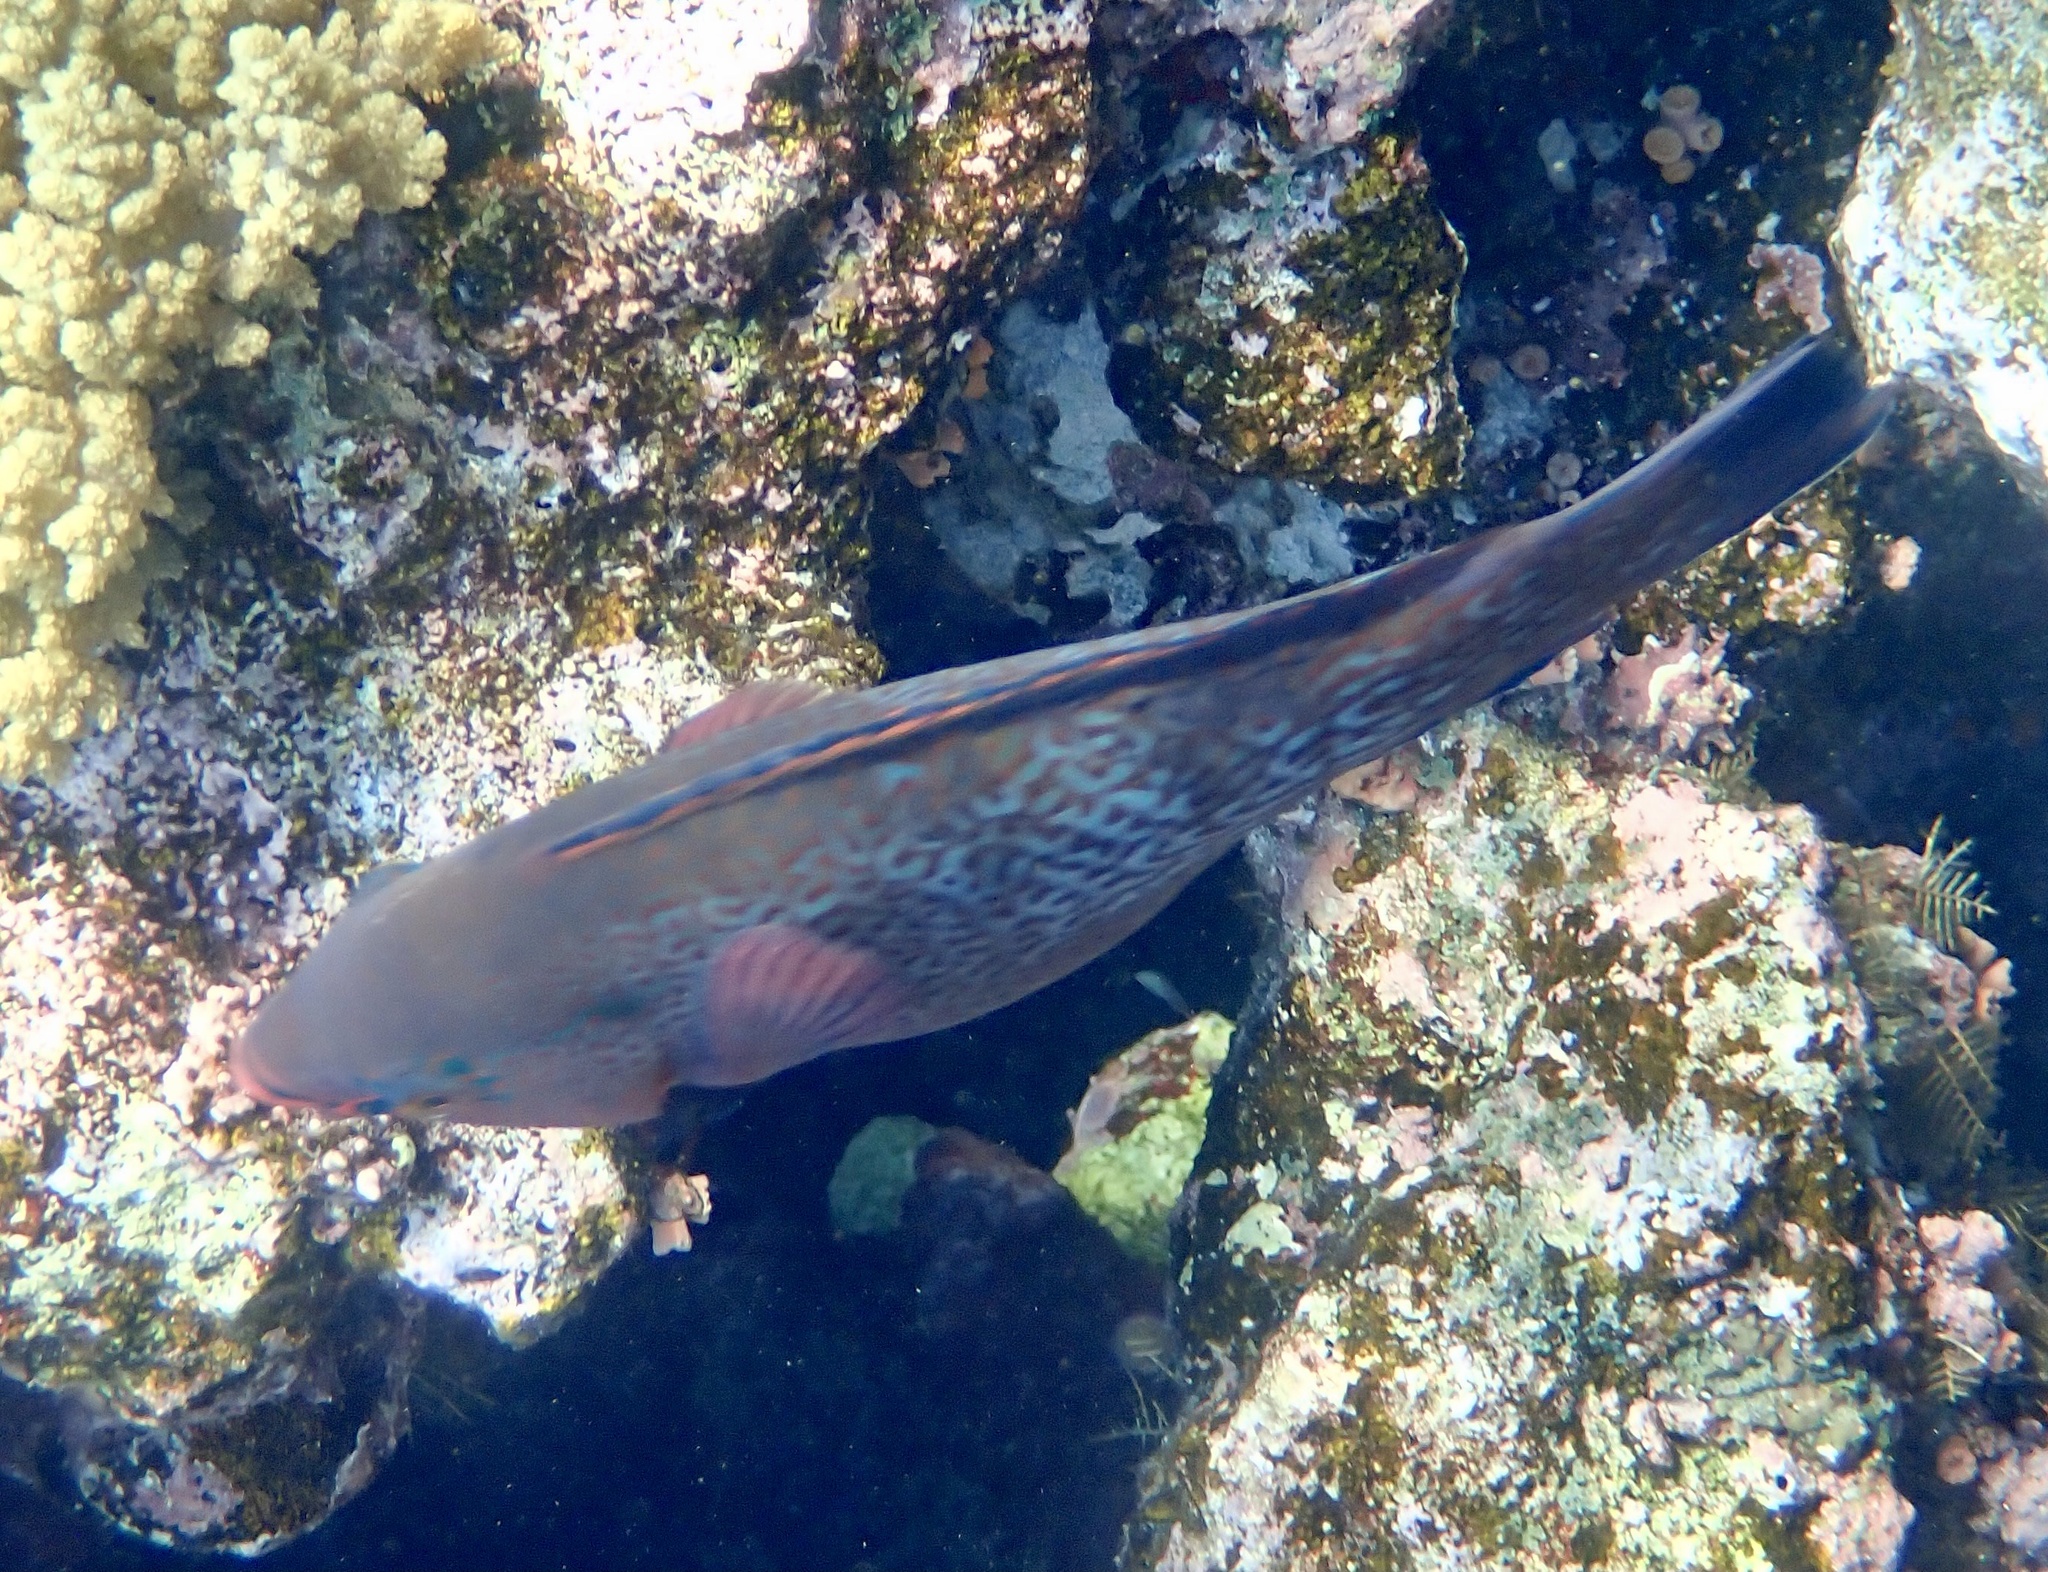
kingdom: Animalia
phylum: Chordata
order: Perciformes
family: Scaridae
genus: Scarus
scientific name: Scarus niger
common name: Dusky parrotfish
